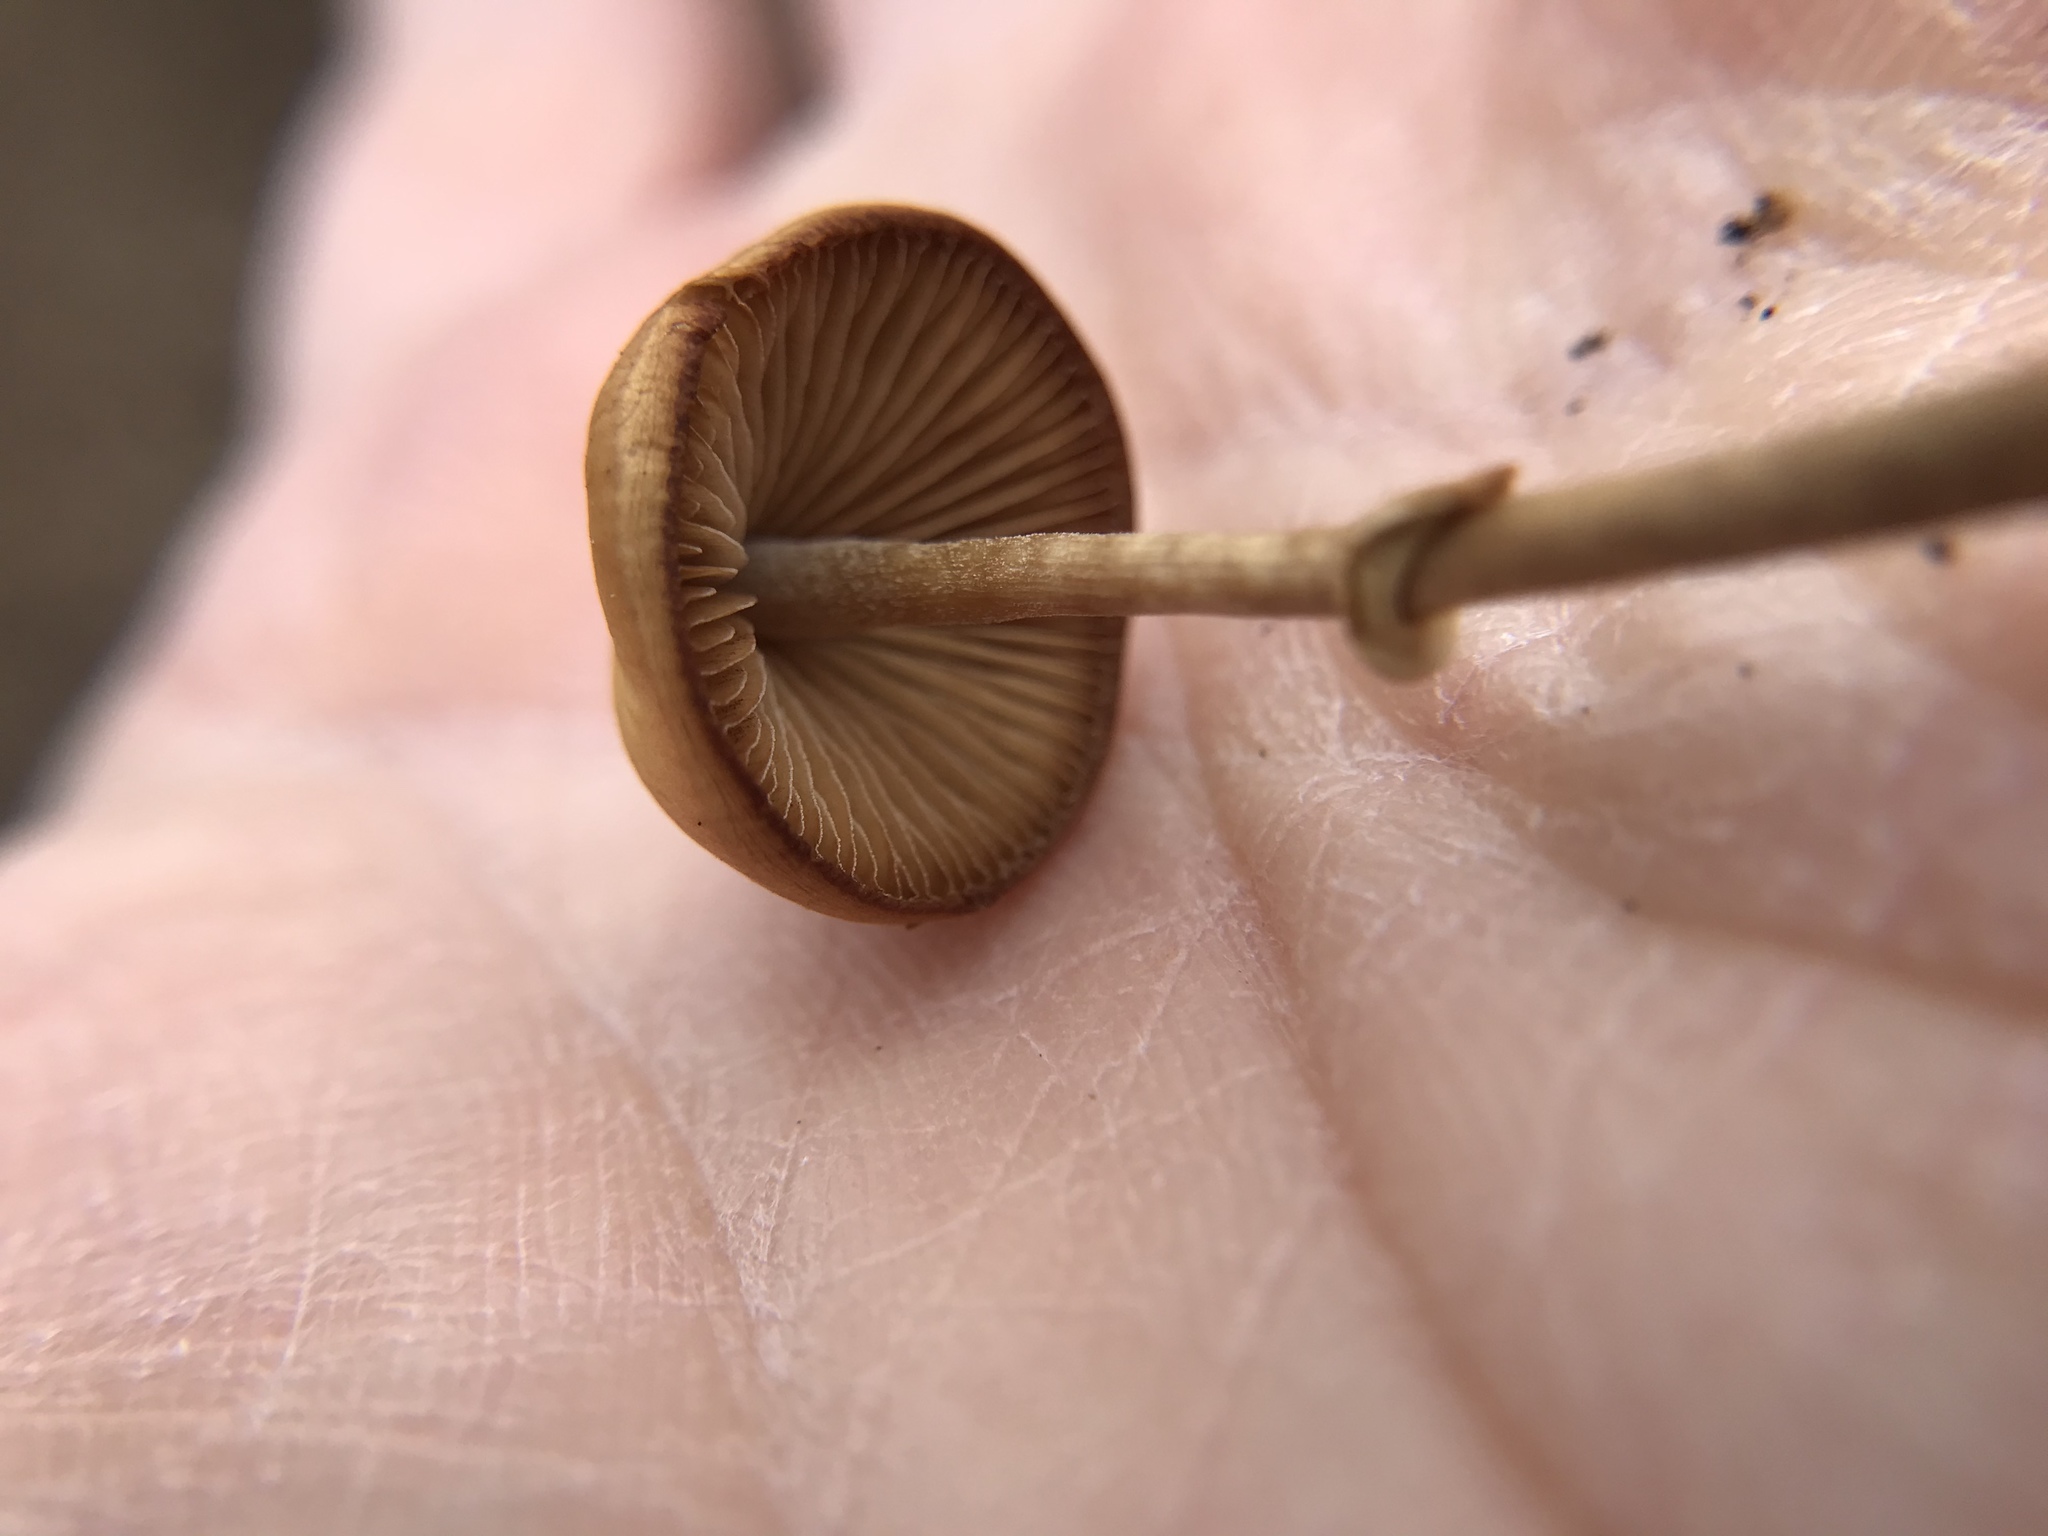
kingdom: Fungi
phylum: Basidiomycota
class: Agaricomycetes
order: Agaricales
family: Bolbitiaceae
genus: Conocybe
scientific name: Conocybe rugosa
